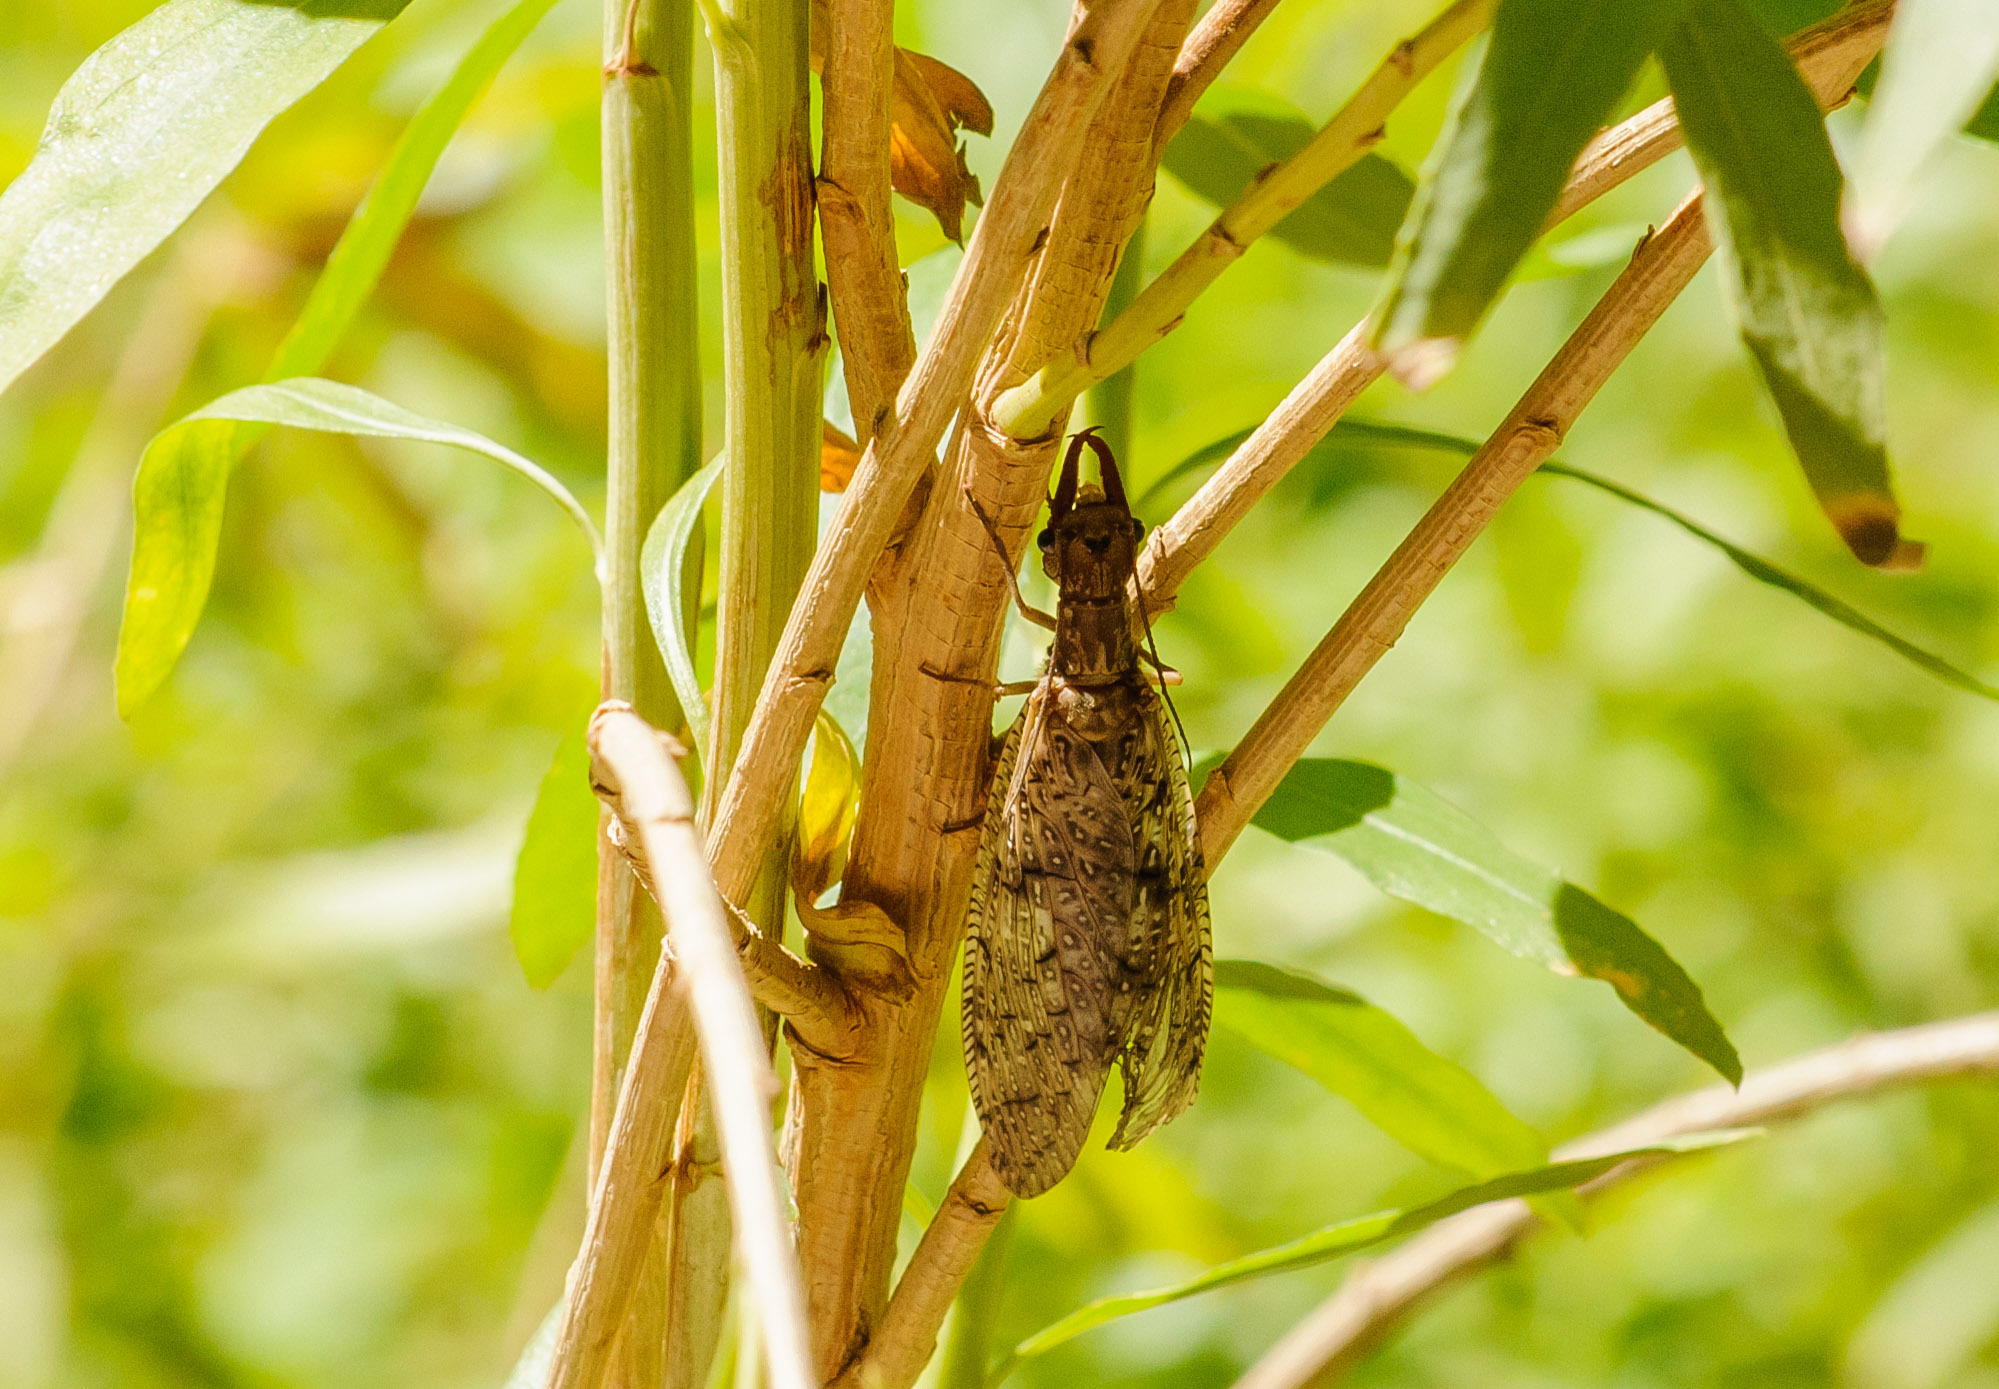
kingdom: Animalia
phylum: Arthropoda
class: Insecta
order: Megaloptera
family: Corydalidae
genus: Corydalus
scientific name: Corydalus texanus
